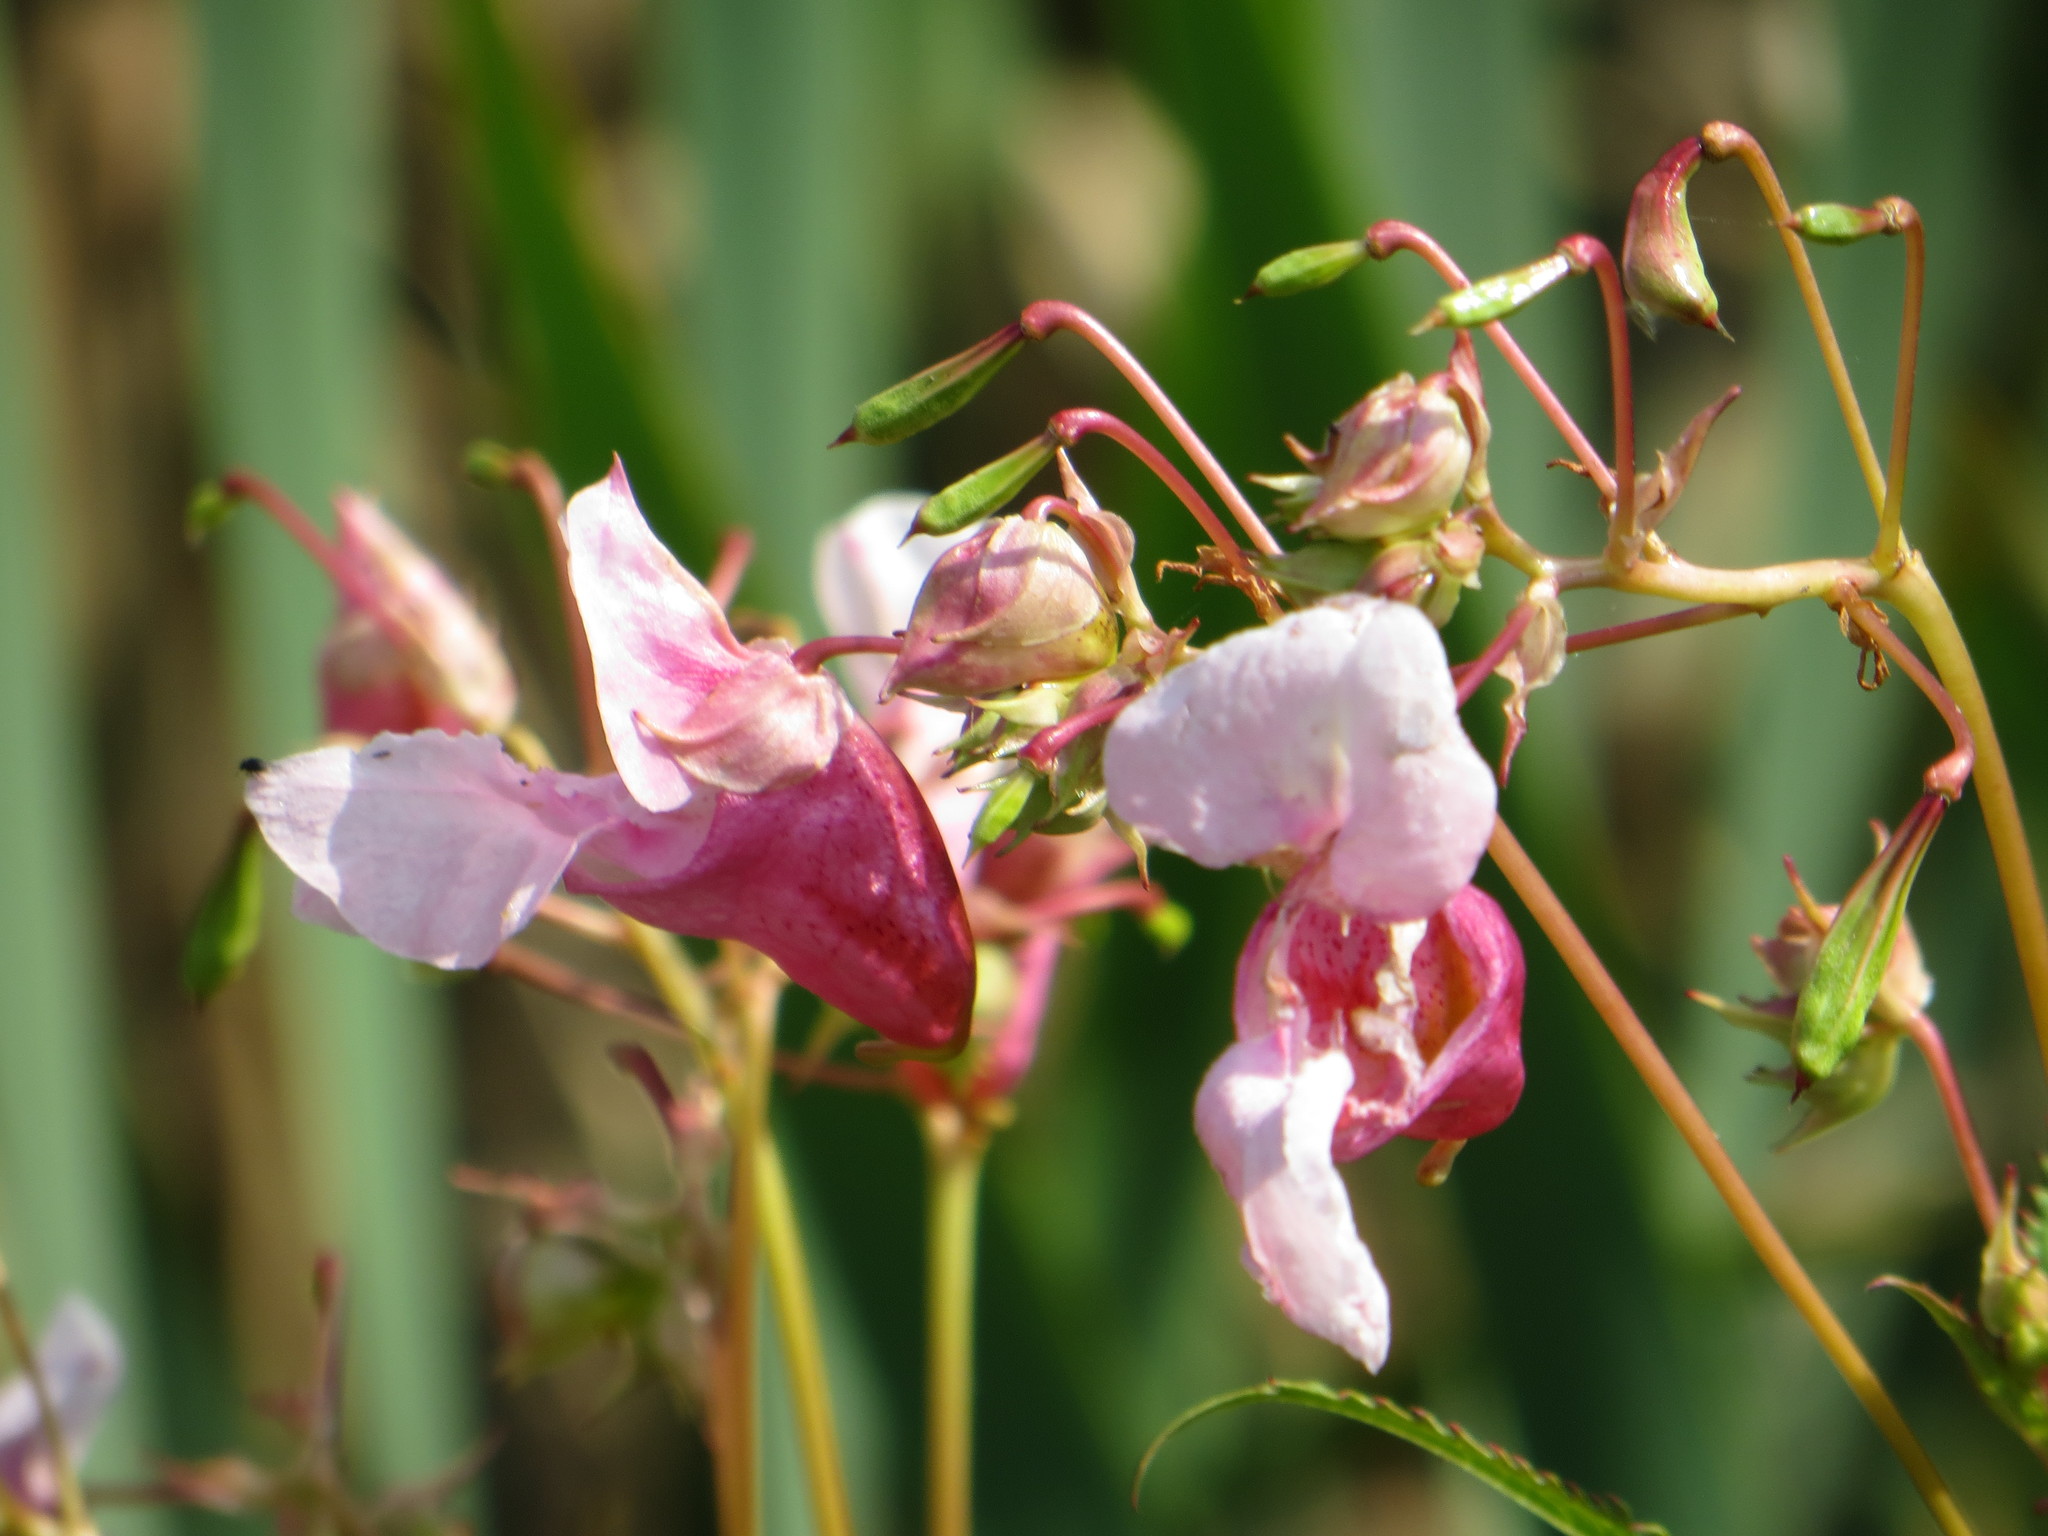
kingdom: Plantae
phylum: Tracheophyta
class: Magnoliopsida
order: Ericales
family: Balsaminaceae
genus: Impatiens
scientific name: Impatiens glandulifera
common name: Himalayan balsam
